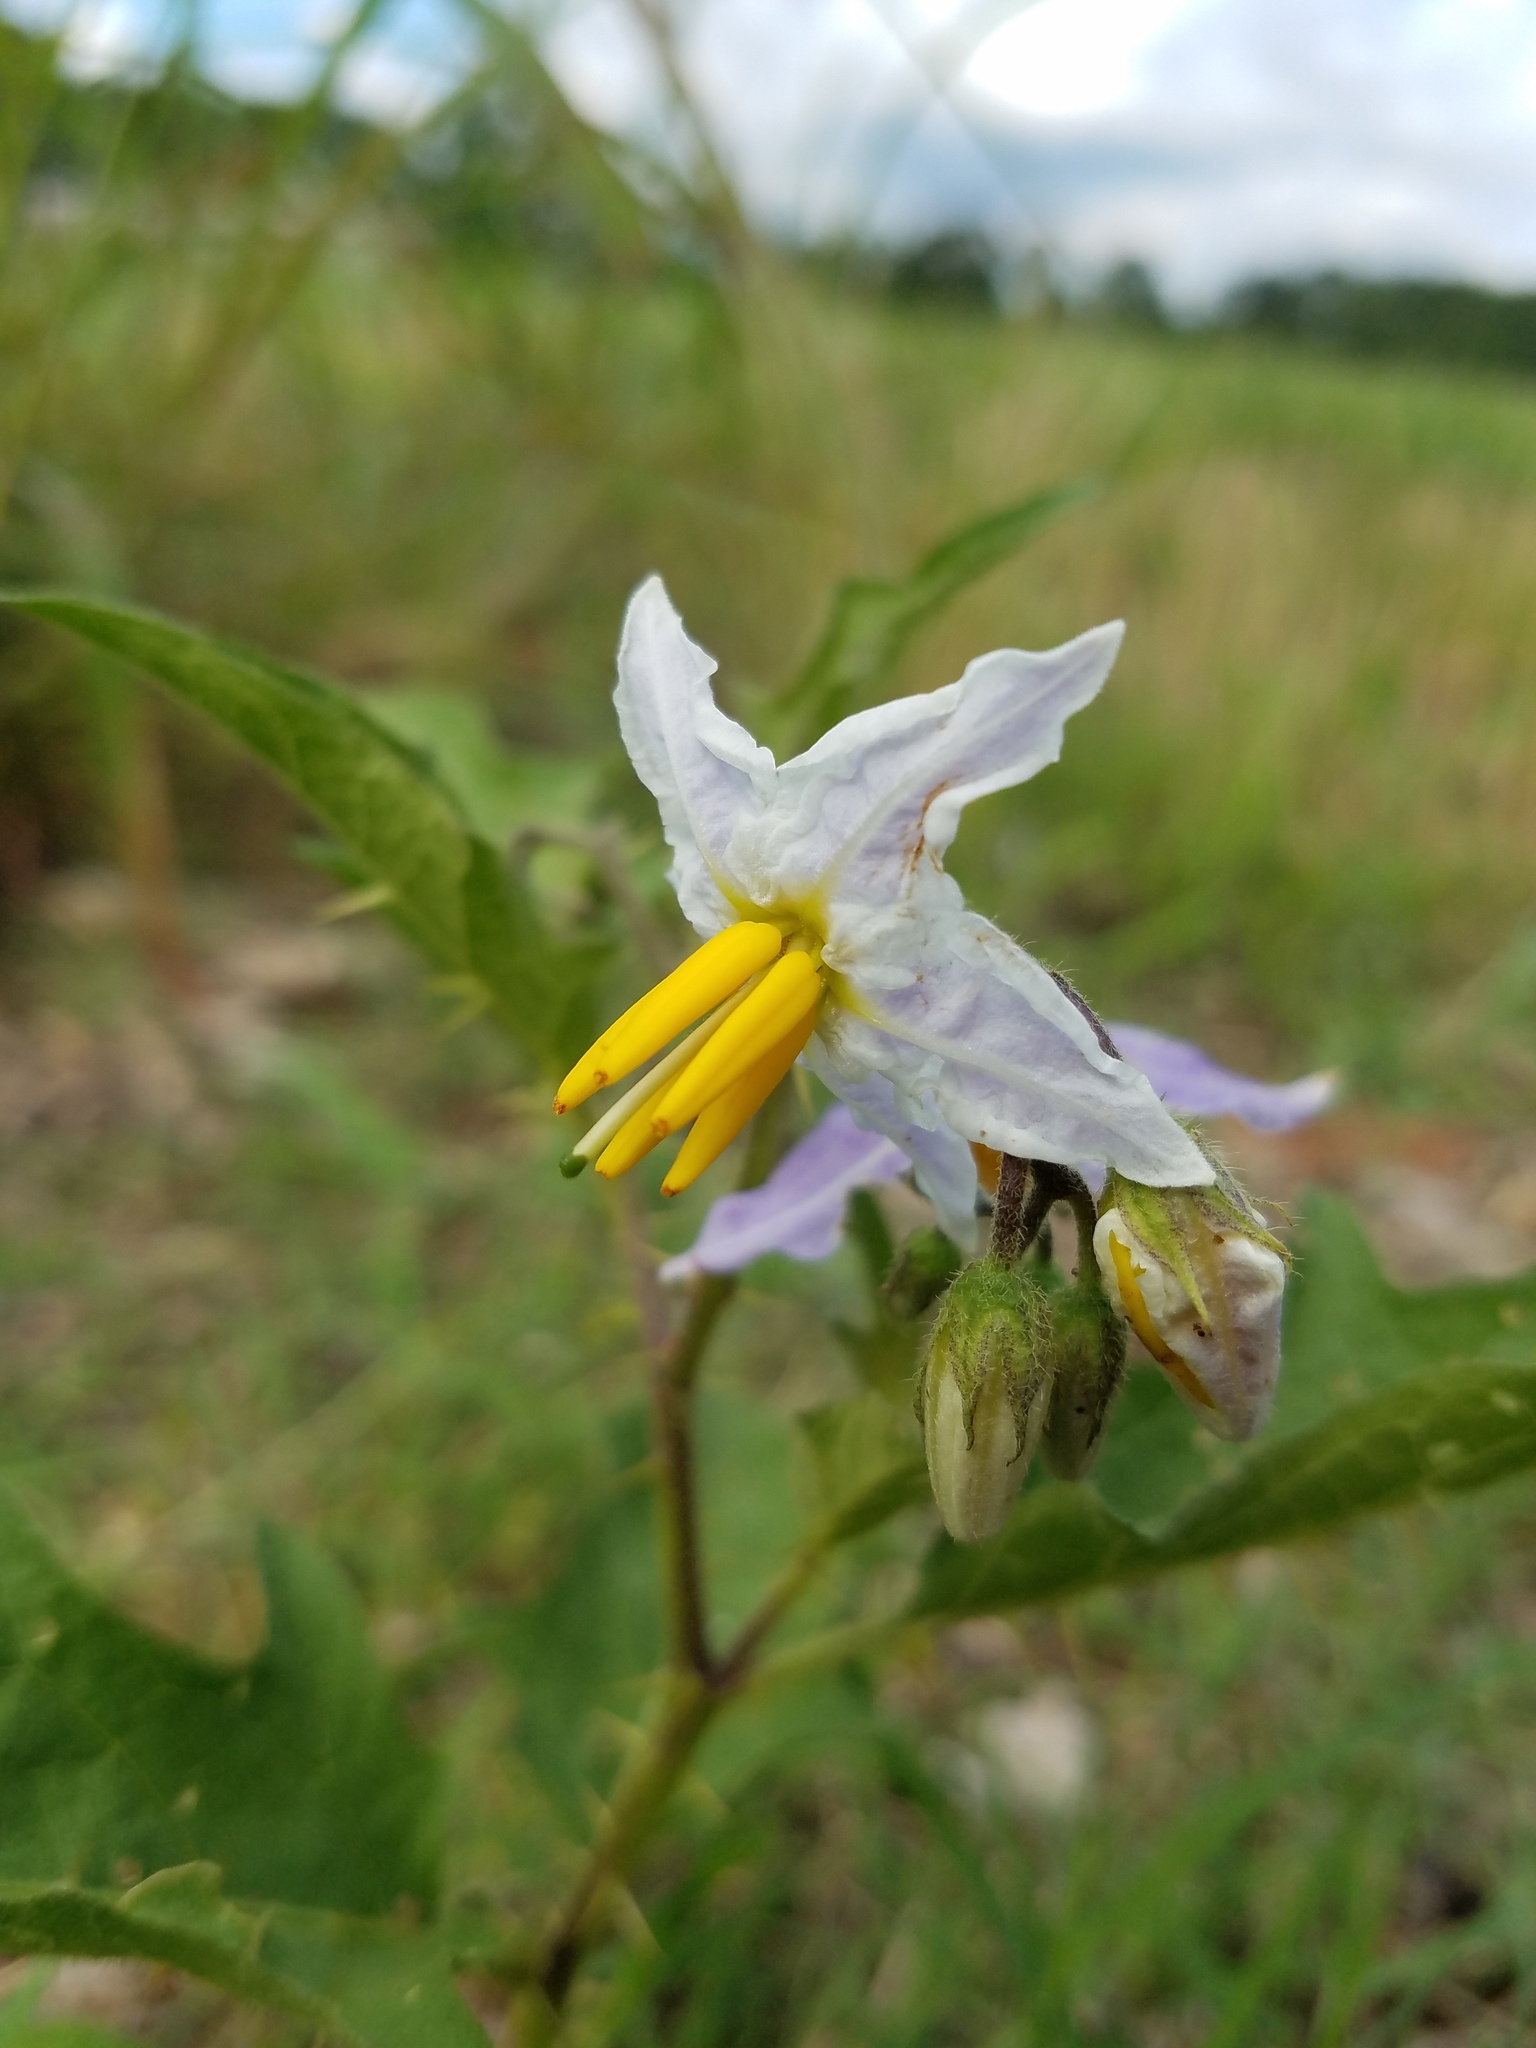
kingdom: Plantae
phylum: Tracheophyta
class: Magnoliopsida
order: Solanales
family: Solanaceae
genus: Solanum
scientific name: Solanum carolinense
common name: Horse-nettle
